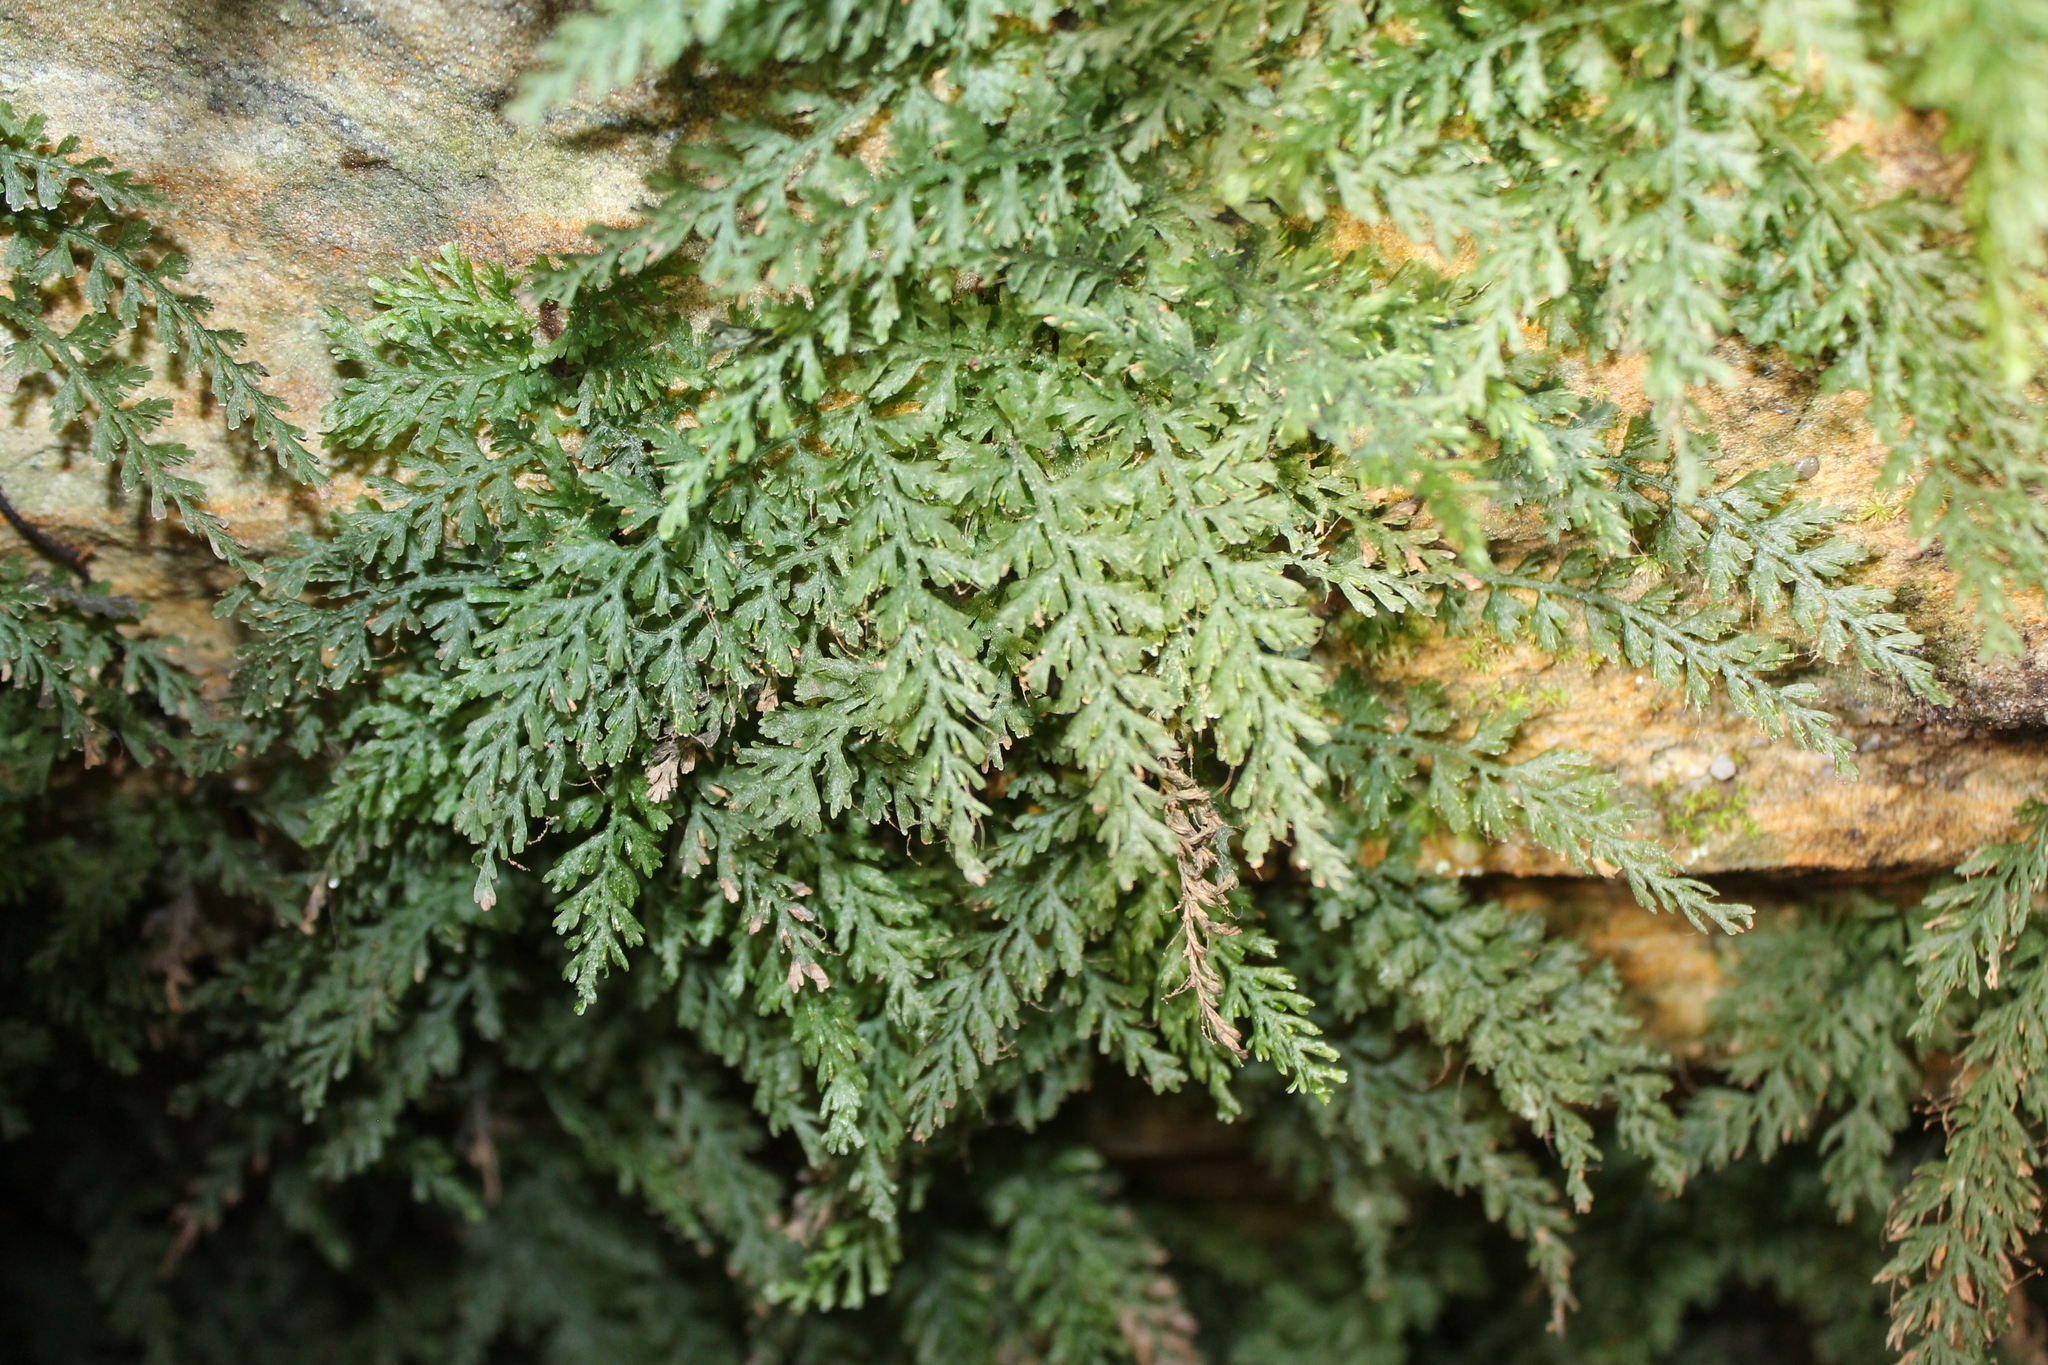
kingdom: Plantae
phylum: Tracheophyta
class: Polypodiopsida
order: Hymenophyllales
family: Hymenophyllaceae
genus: Vandenboschia
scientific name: Vandenboschia boschiana
